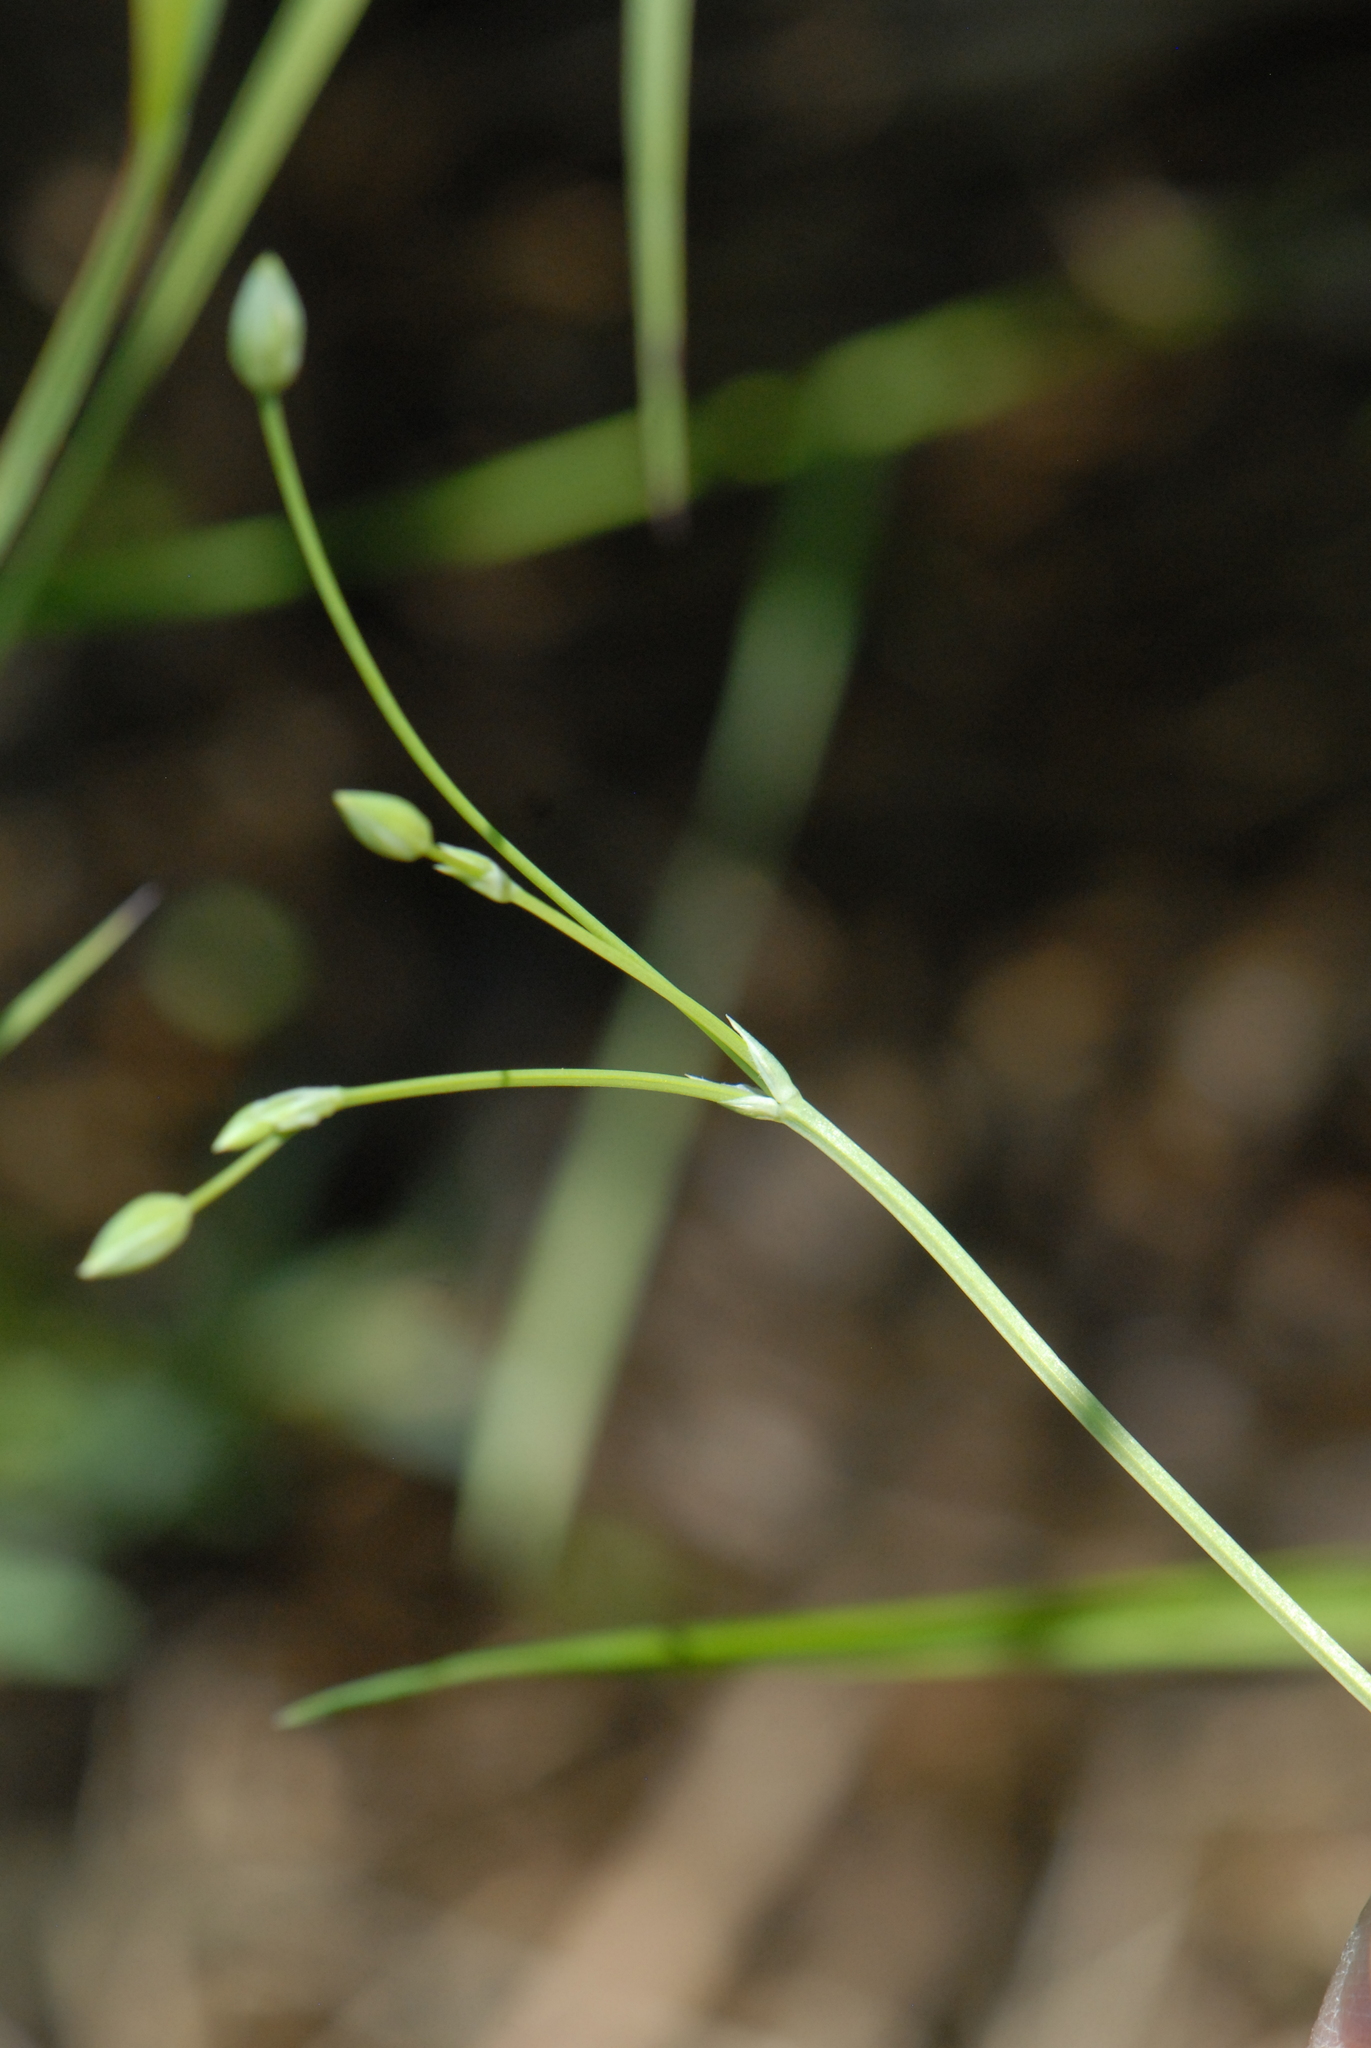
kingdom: Plantae
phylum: Tracheophyta
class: Magnoliopsida
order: Caryophyllales
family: Caryophyllaceae
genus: Stellaria
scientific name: Stellaria palustris
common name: Marsh stitchwort
